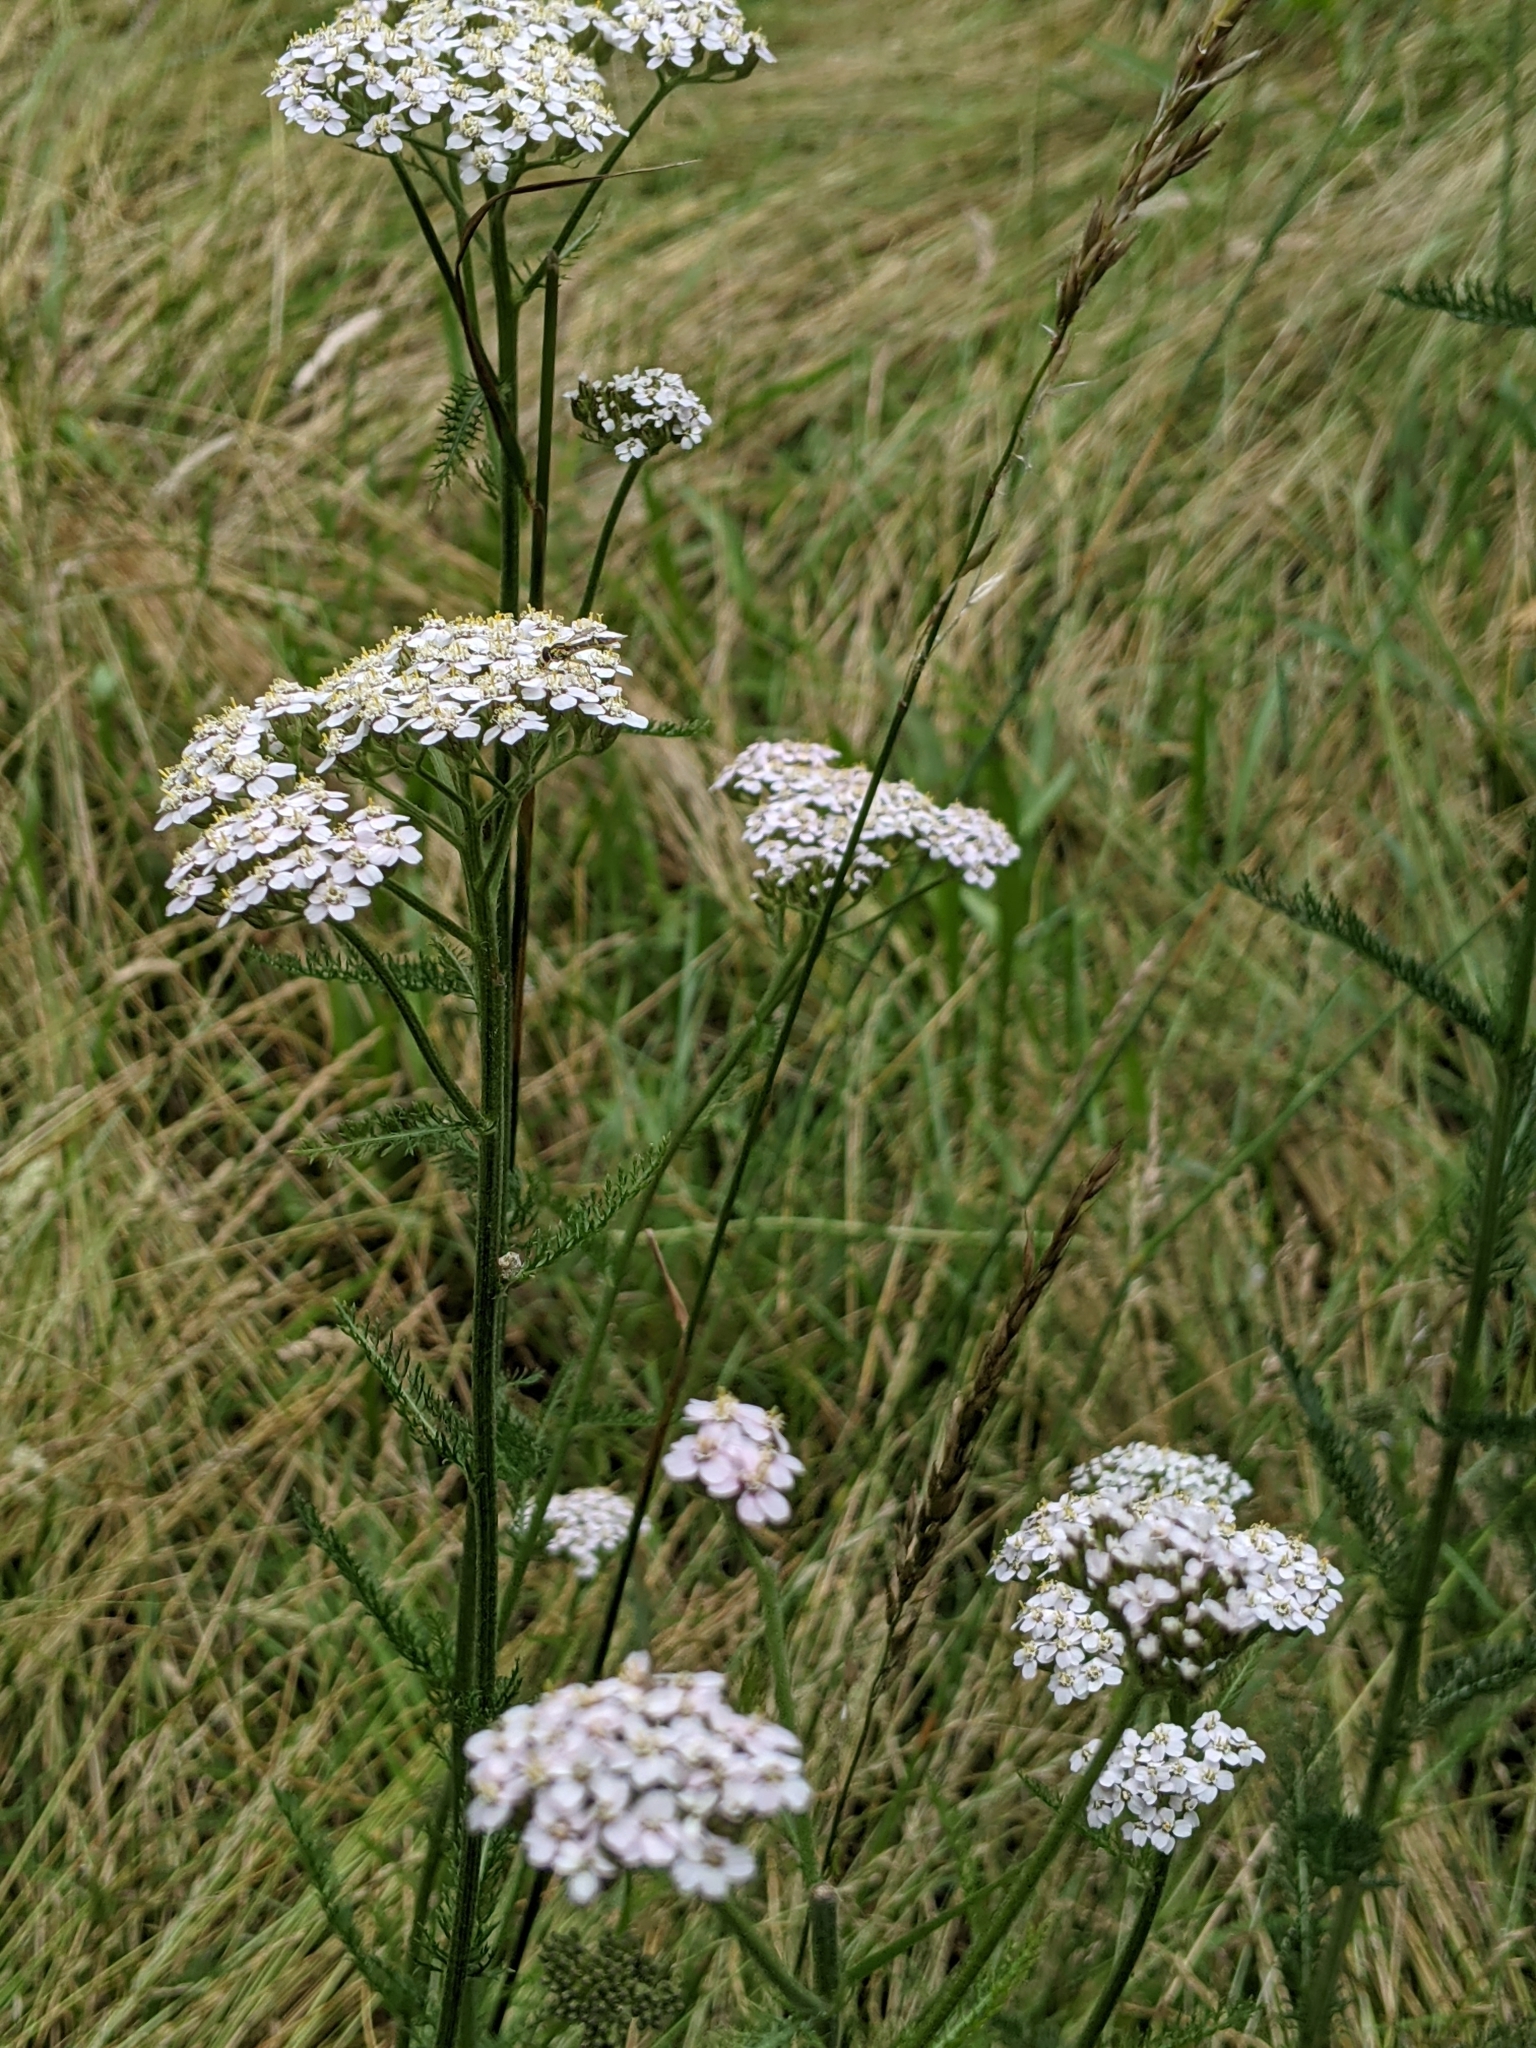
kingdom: Plantae
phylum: Tracheophyta
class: Magnoliopsida
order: Asterales
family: Asteraceae
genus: Achillea
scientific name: Achillea millefolium
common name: Yarrow
